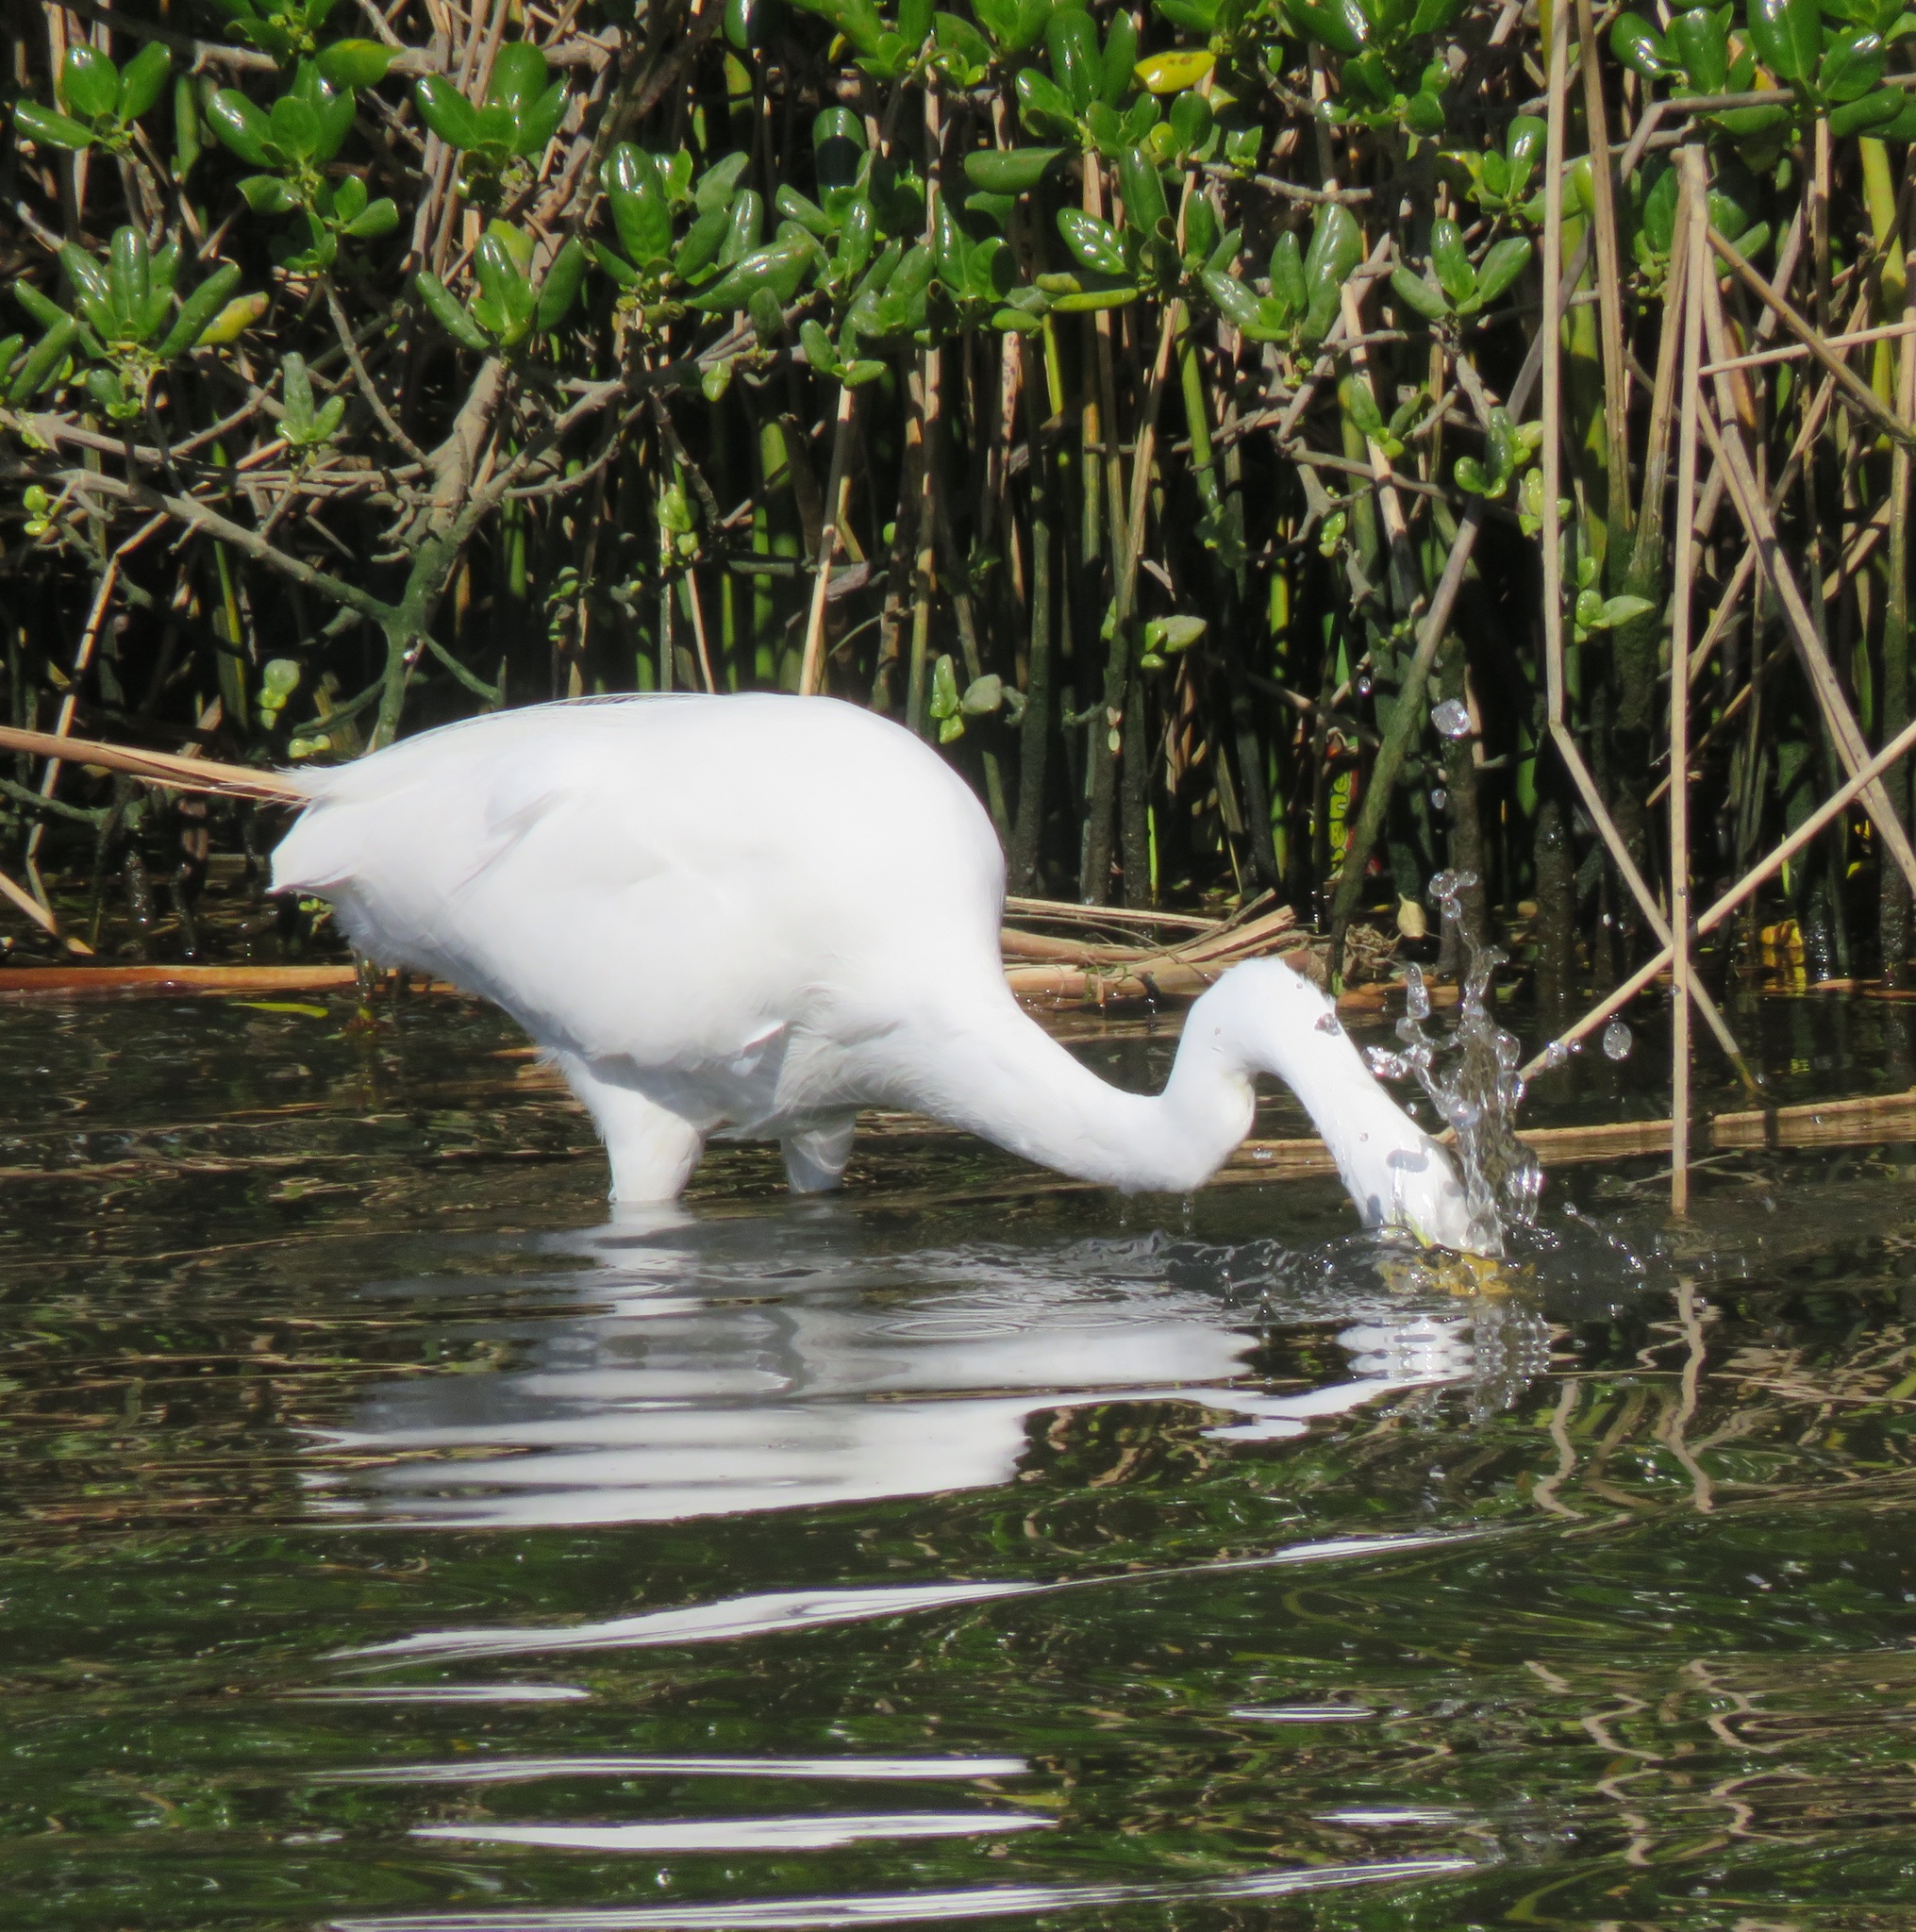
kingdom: Animalia
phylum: Chordata
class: Aves
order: Pelecaniformes
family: Ardeidae
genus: Ardea
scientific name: Ardea modesta
